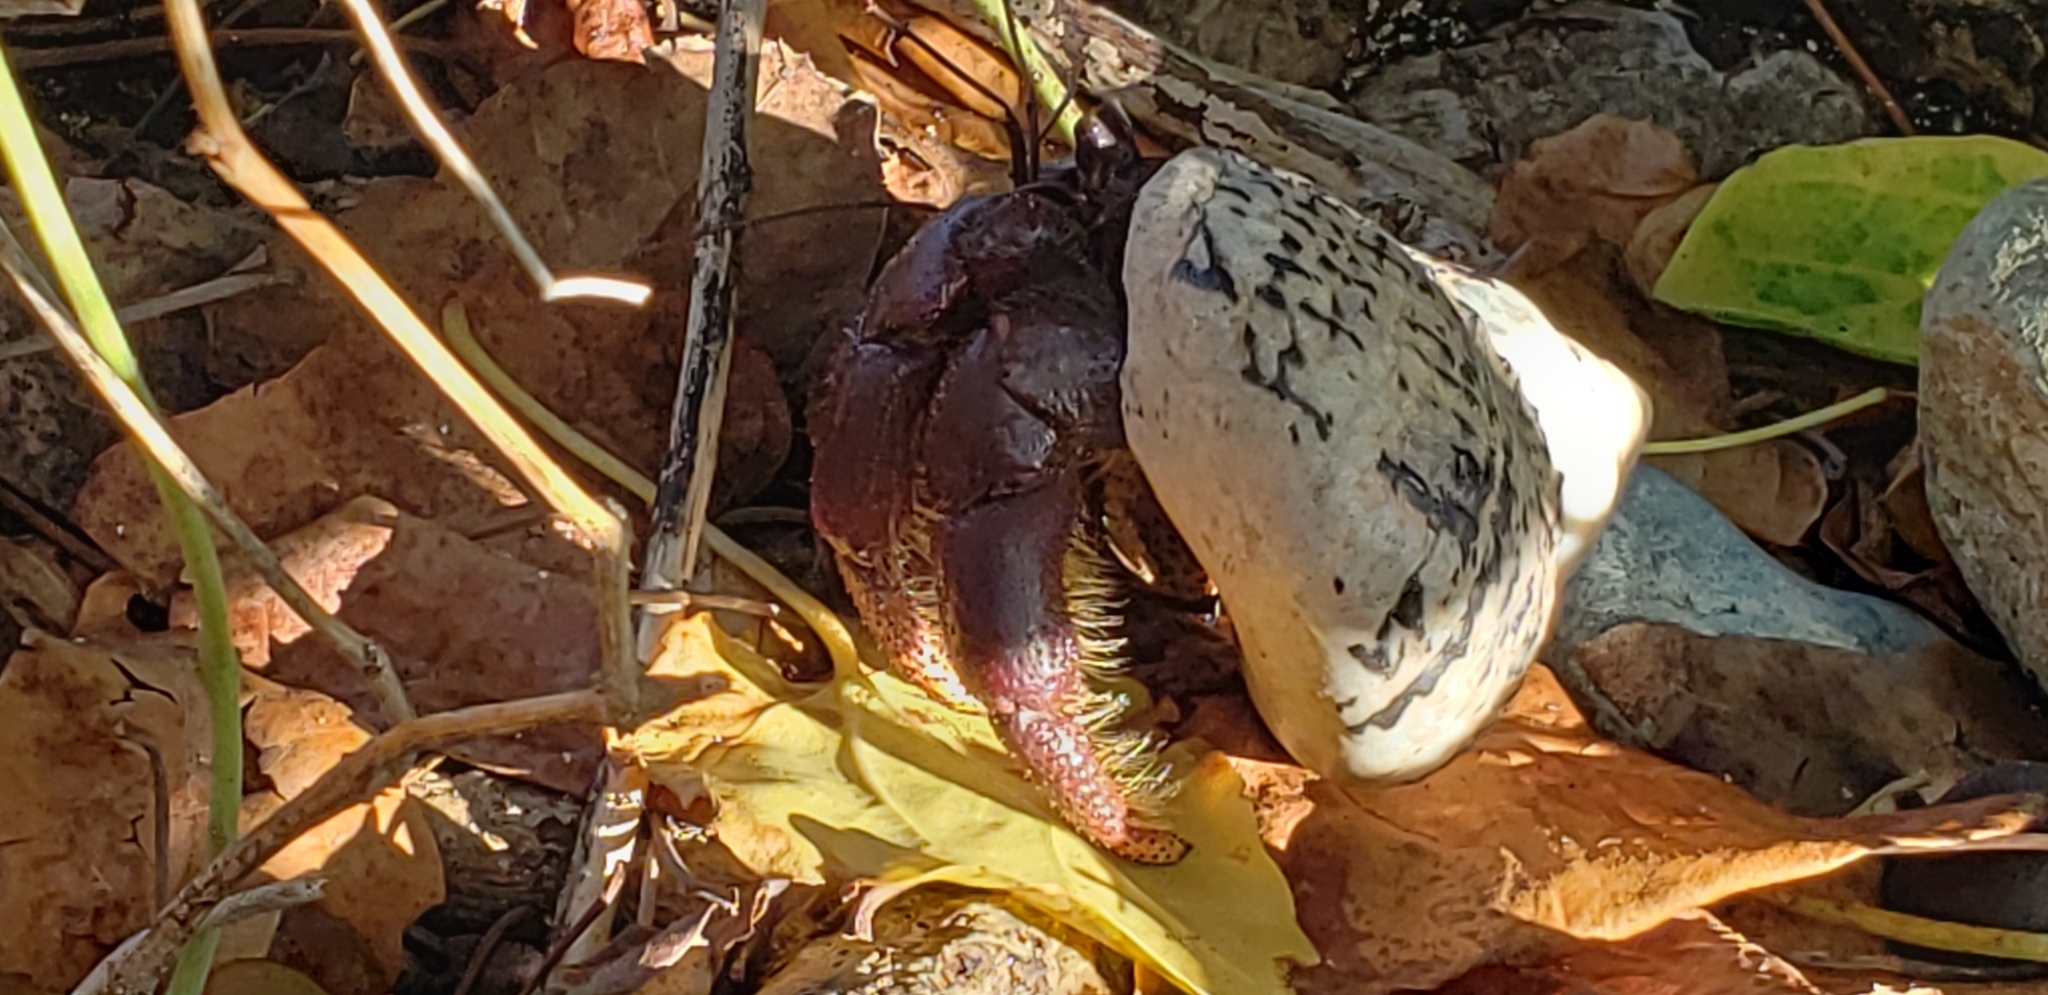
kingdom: Animalia
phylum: Arthropoda
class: Malacostraca
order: Decapoda
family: Coenobitidae
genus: Coenobita
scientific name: Coenobita clypeatus
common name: Caribbean hermit crab
